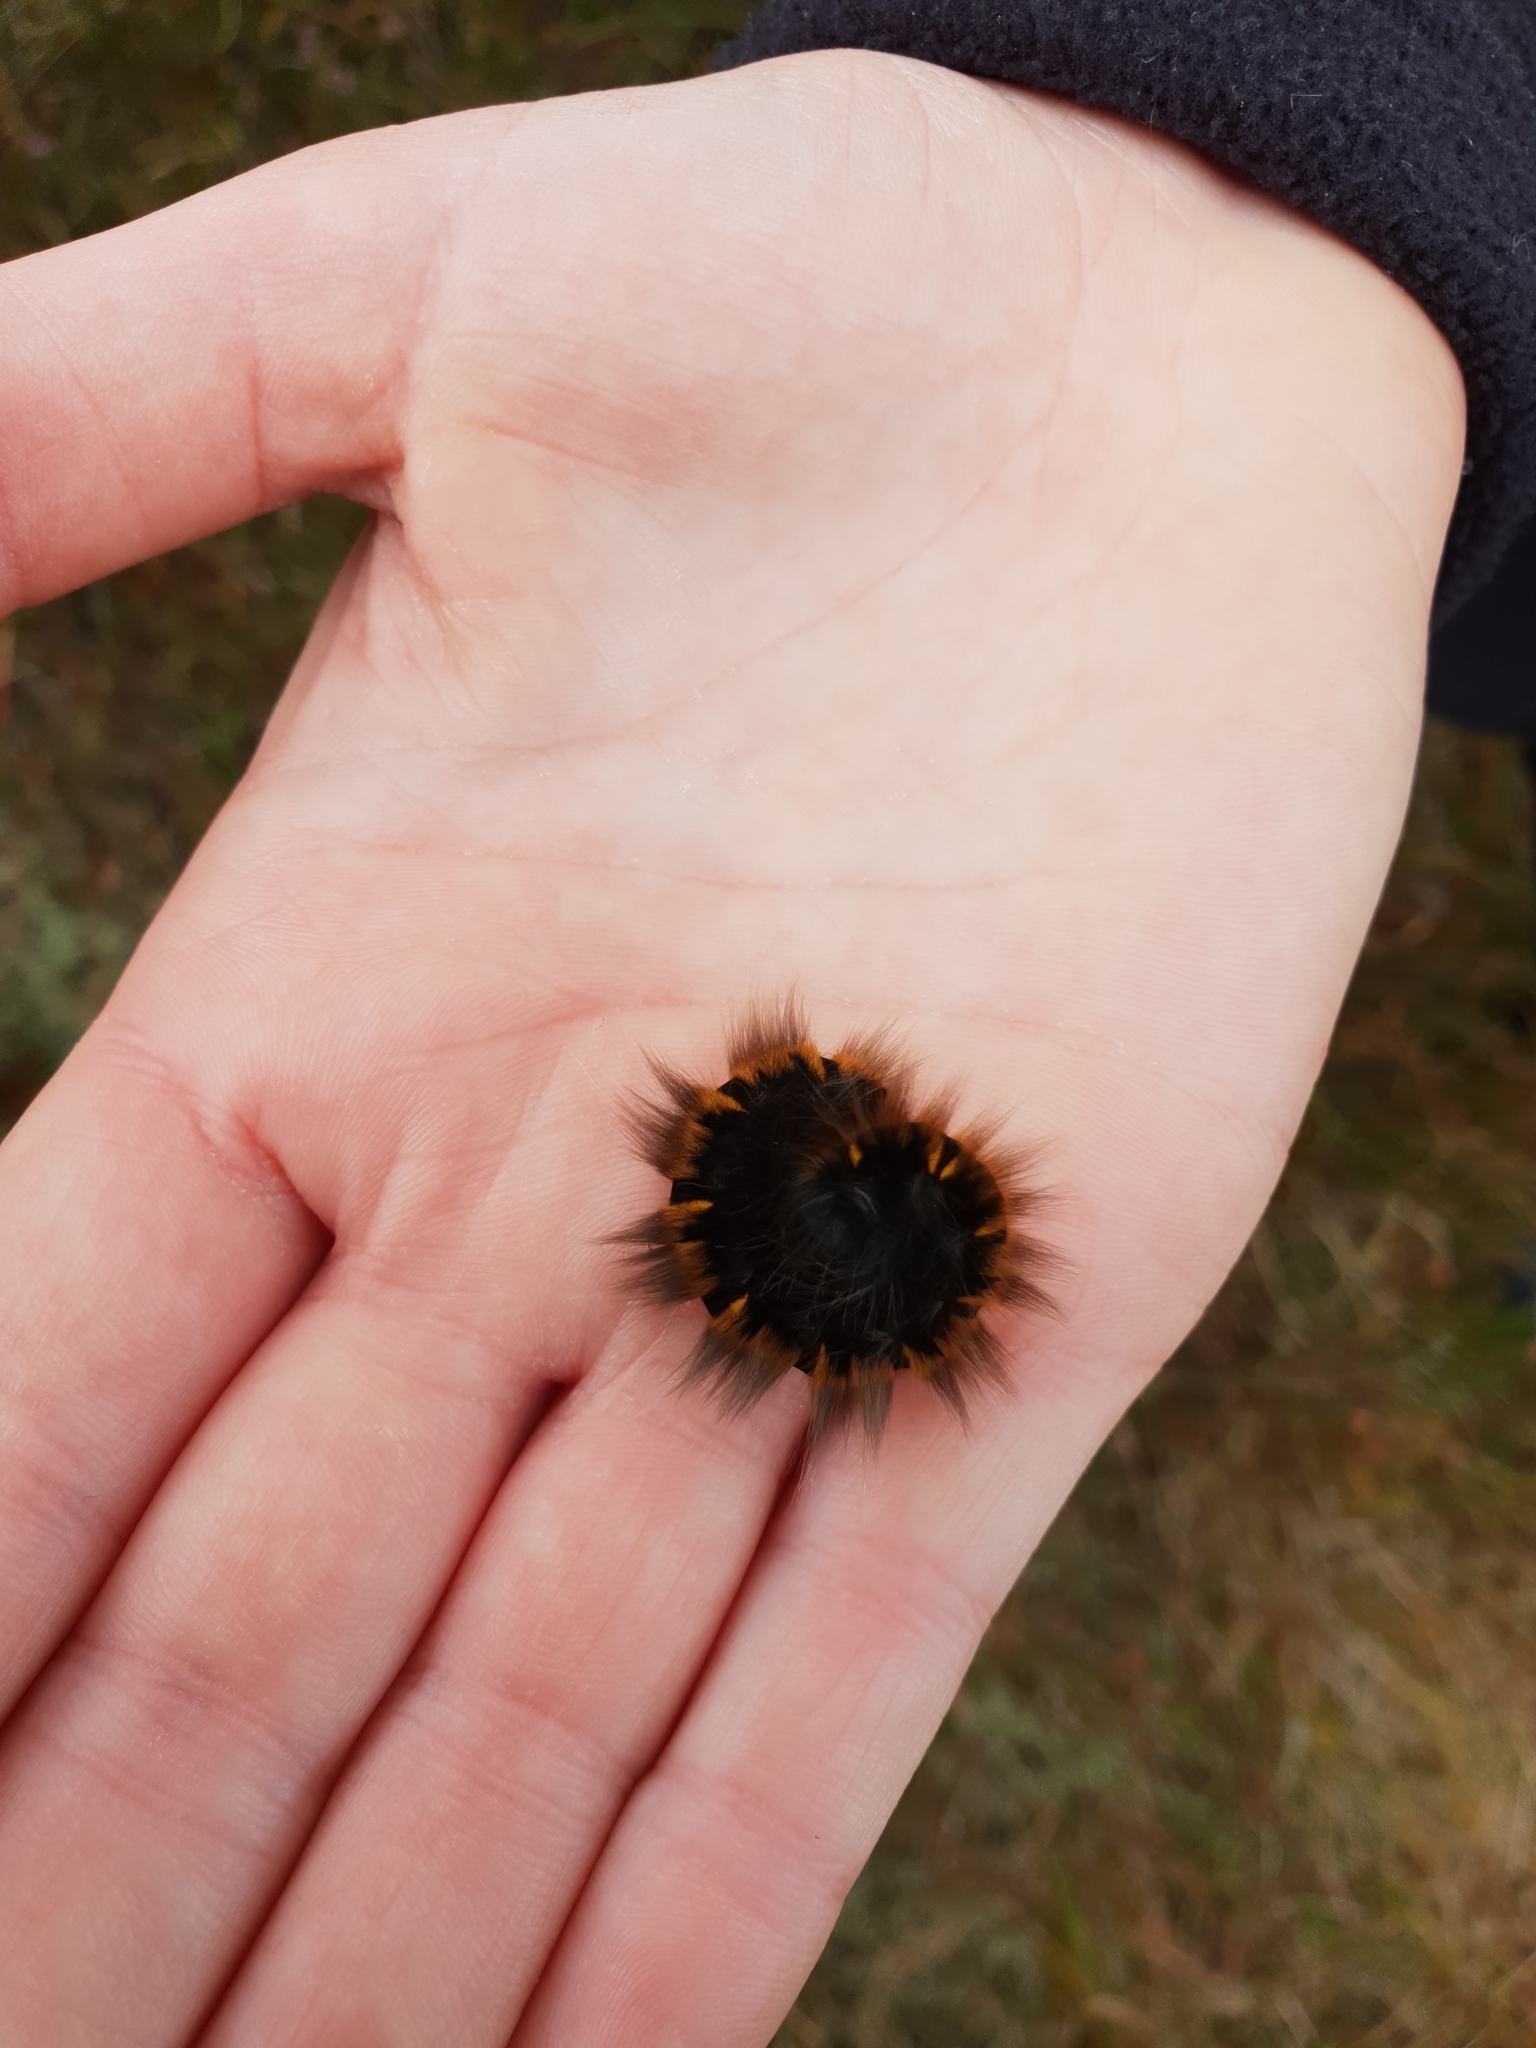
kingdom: Animalia
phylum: Arthropoda
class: Insecta
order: Lepidoptera
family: Lasiocampidae
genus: Macrothylacia
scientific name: Macrothylacia rubi
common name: Fox moth
